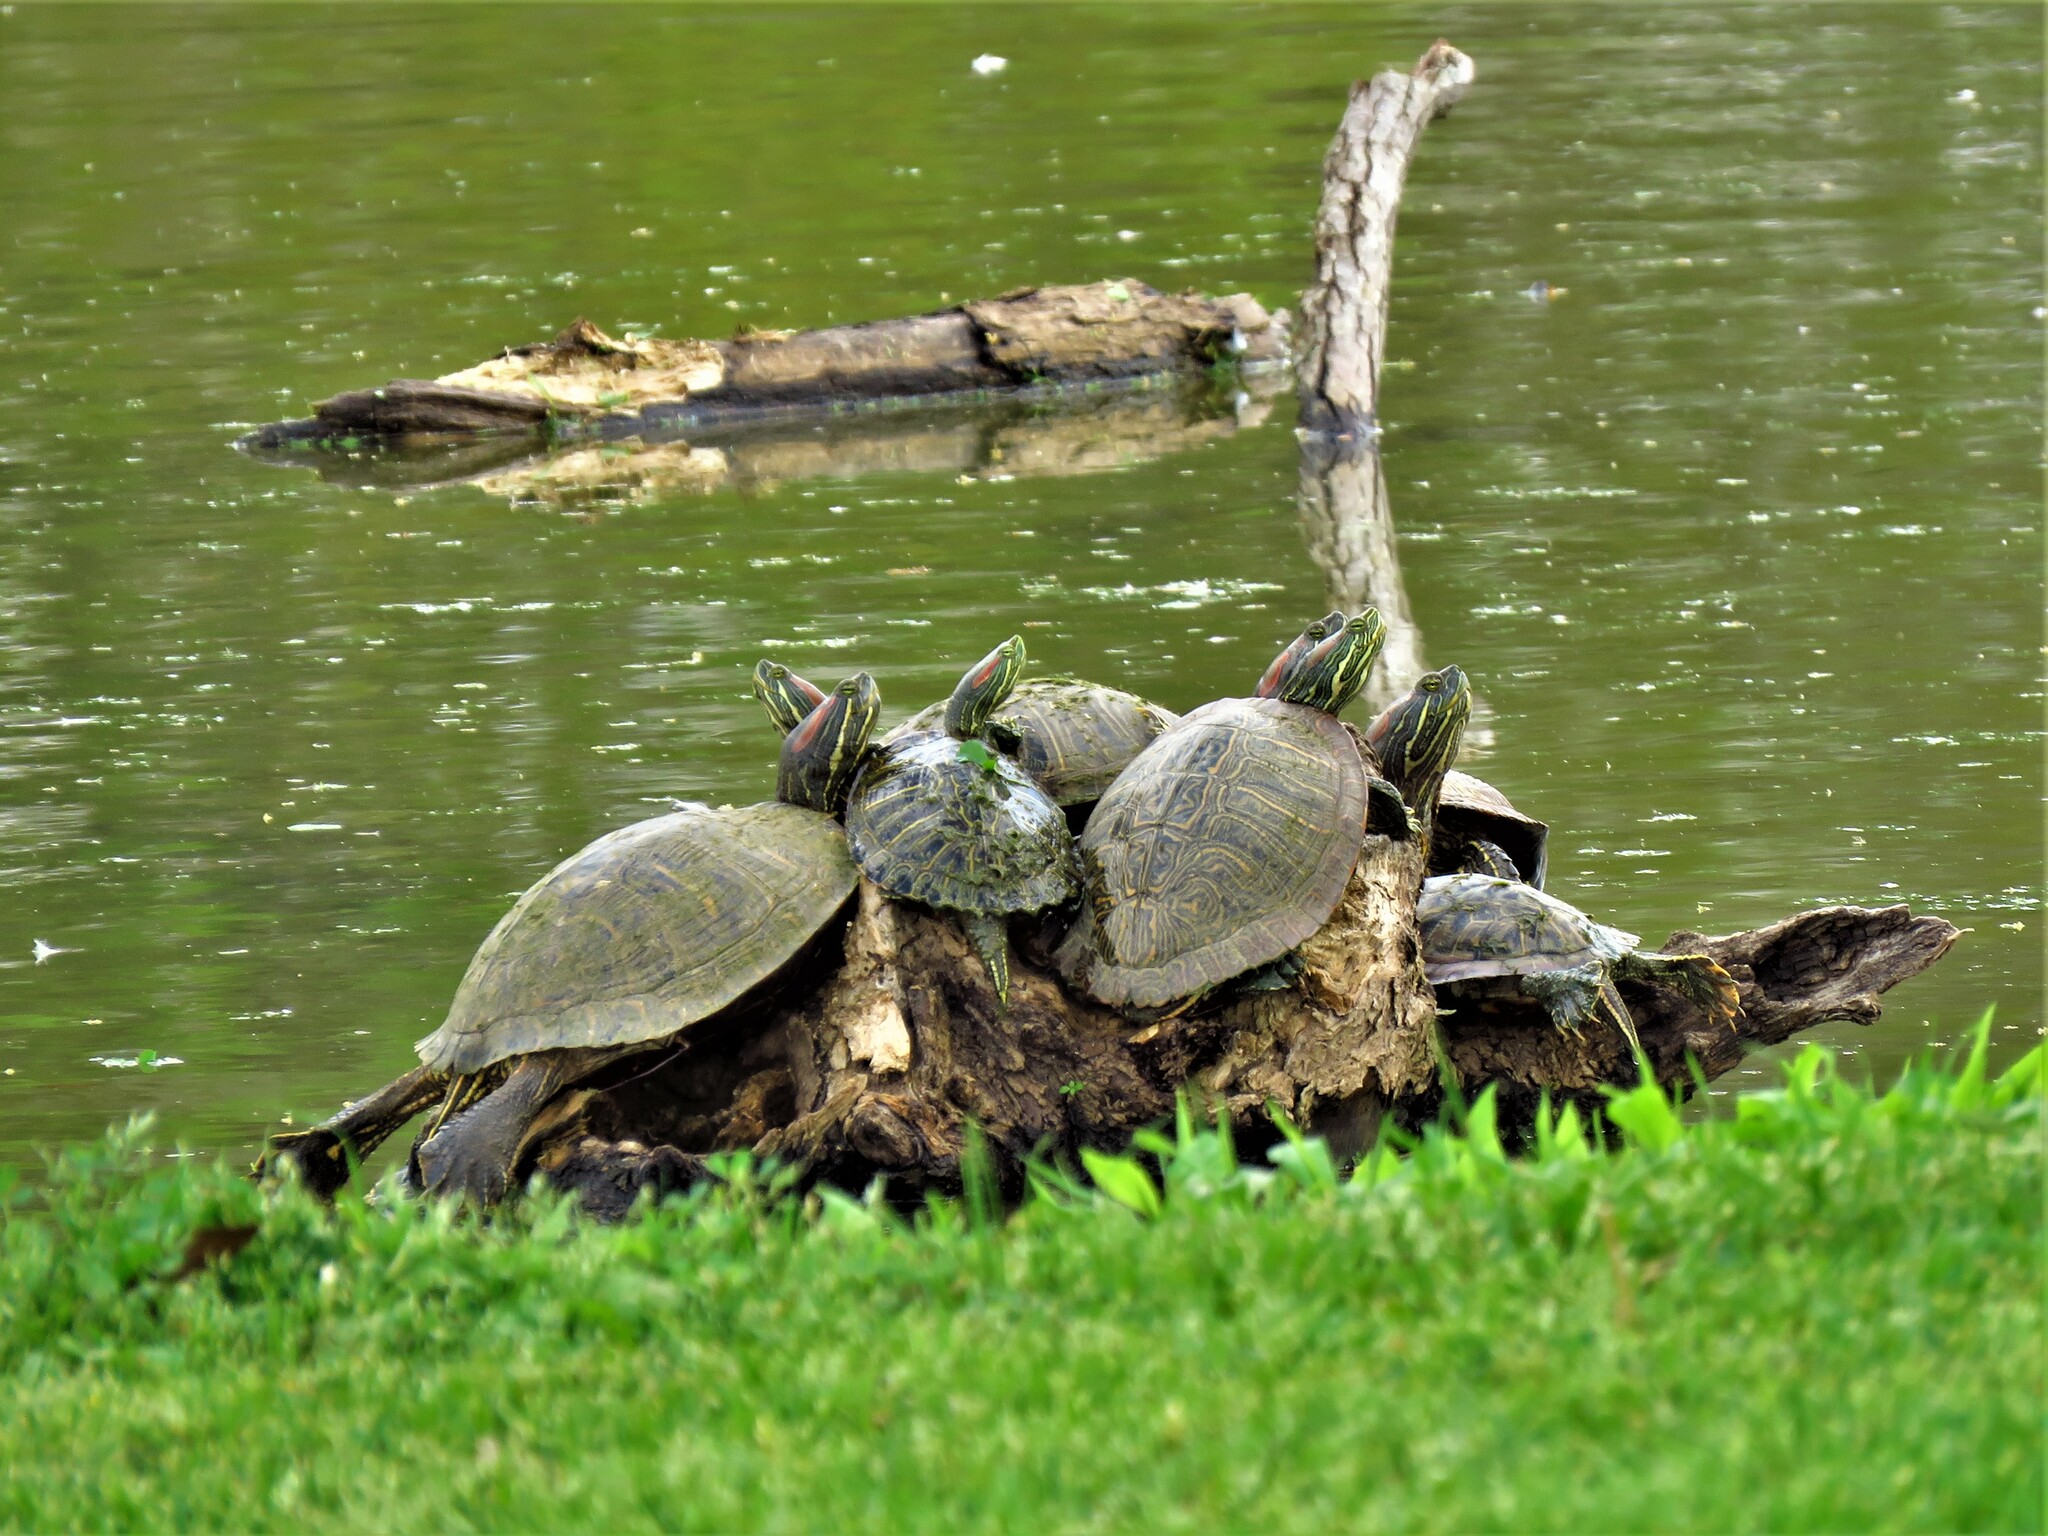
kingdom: Animalia
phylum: Chordata
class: Testudines
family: Emydidae
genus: Trachemys
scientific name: Trachemys scripta
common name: Slider
